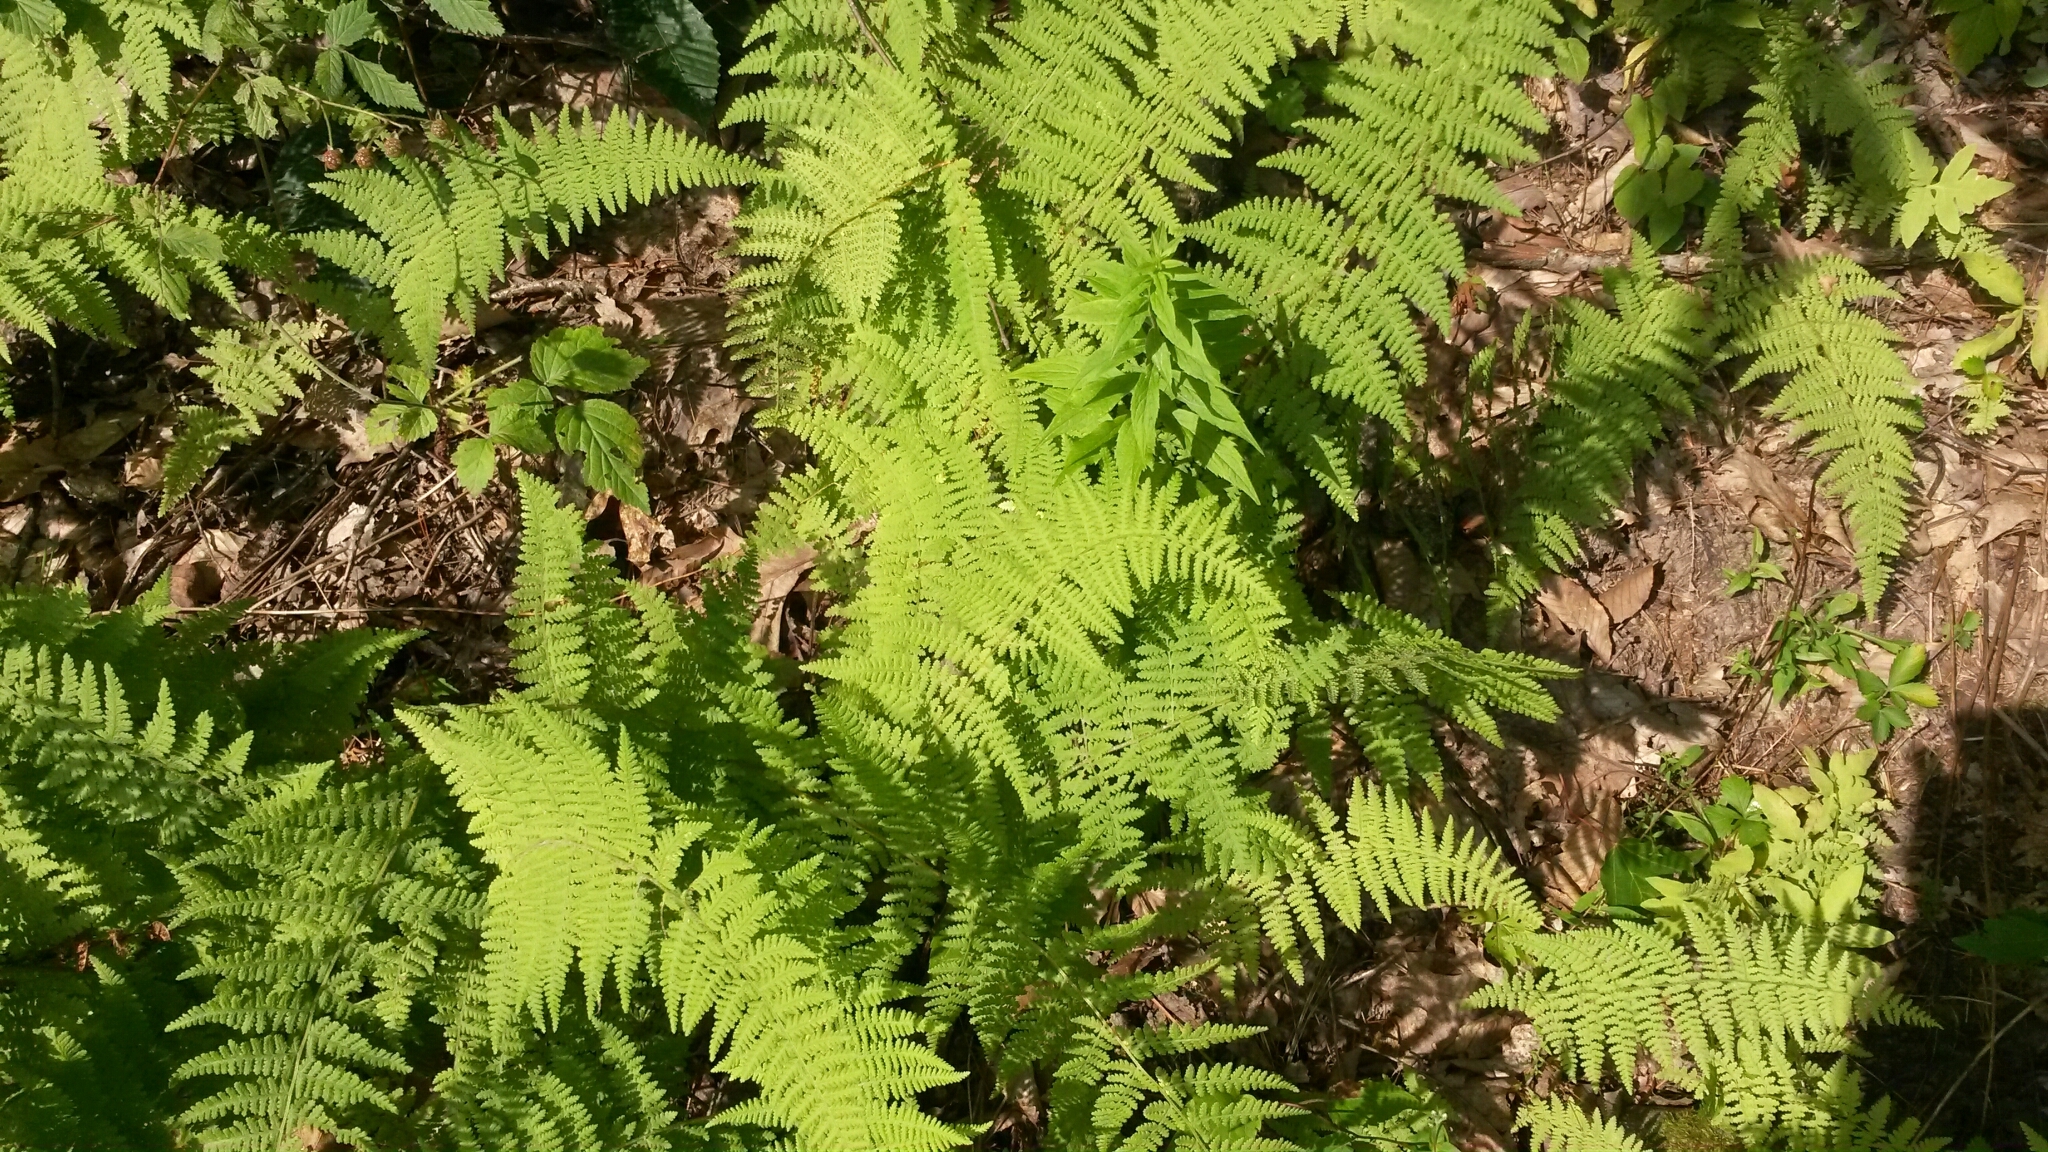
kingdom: Plantae
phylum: Tracheophyta
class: Polypodiopsida
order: Polypodiales
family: Dennstaedtiaceae
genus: Sitobolium
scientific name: Sitobolium punctilobum
